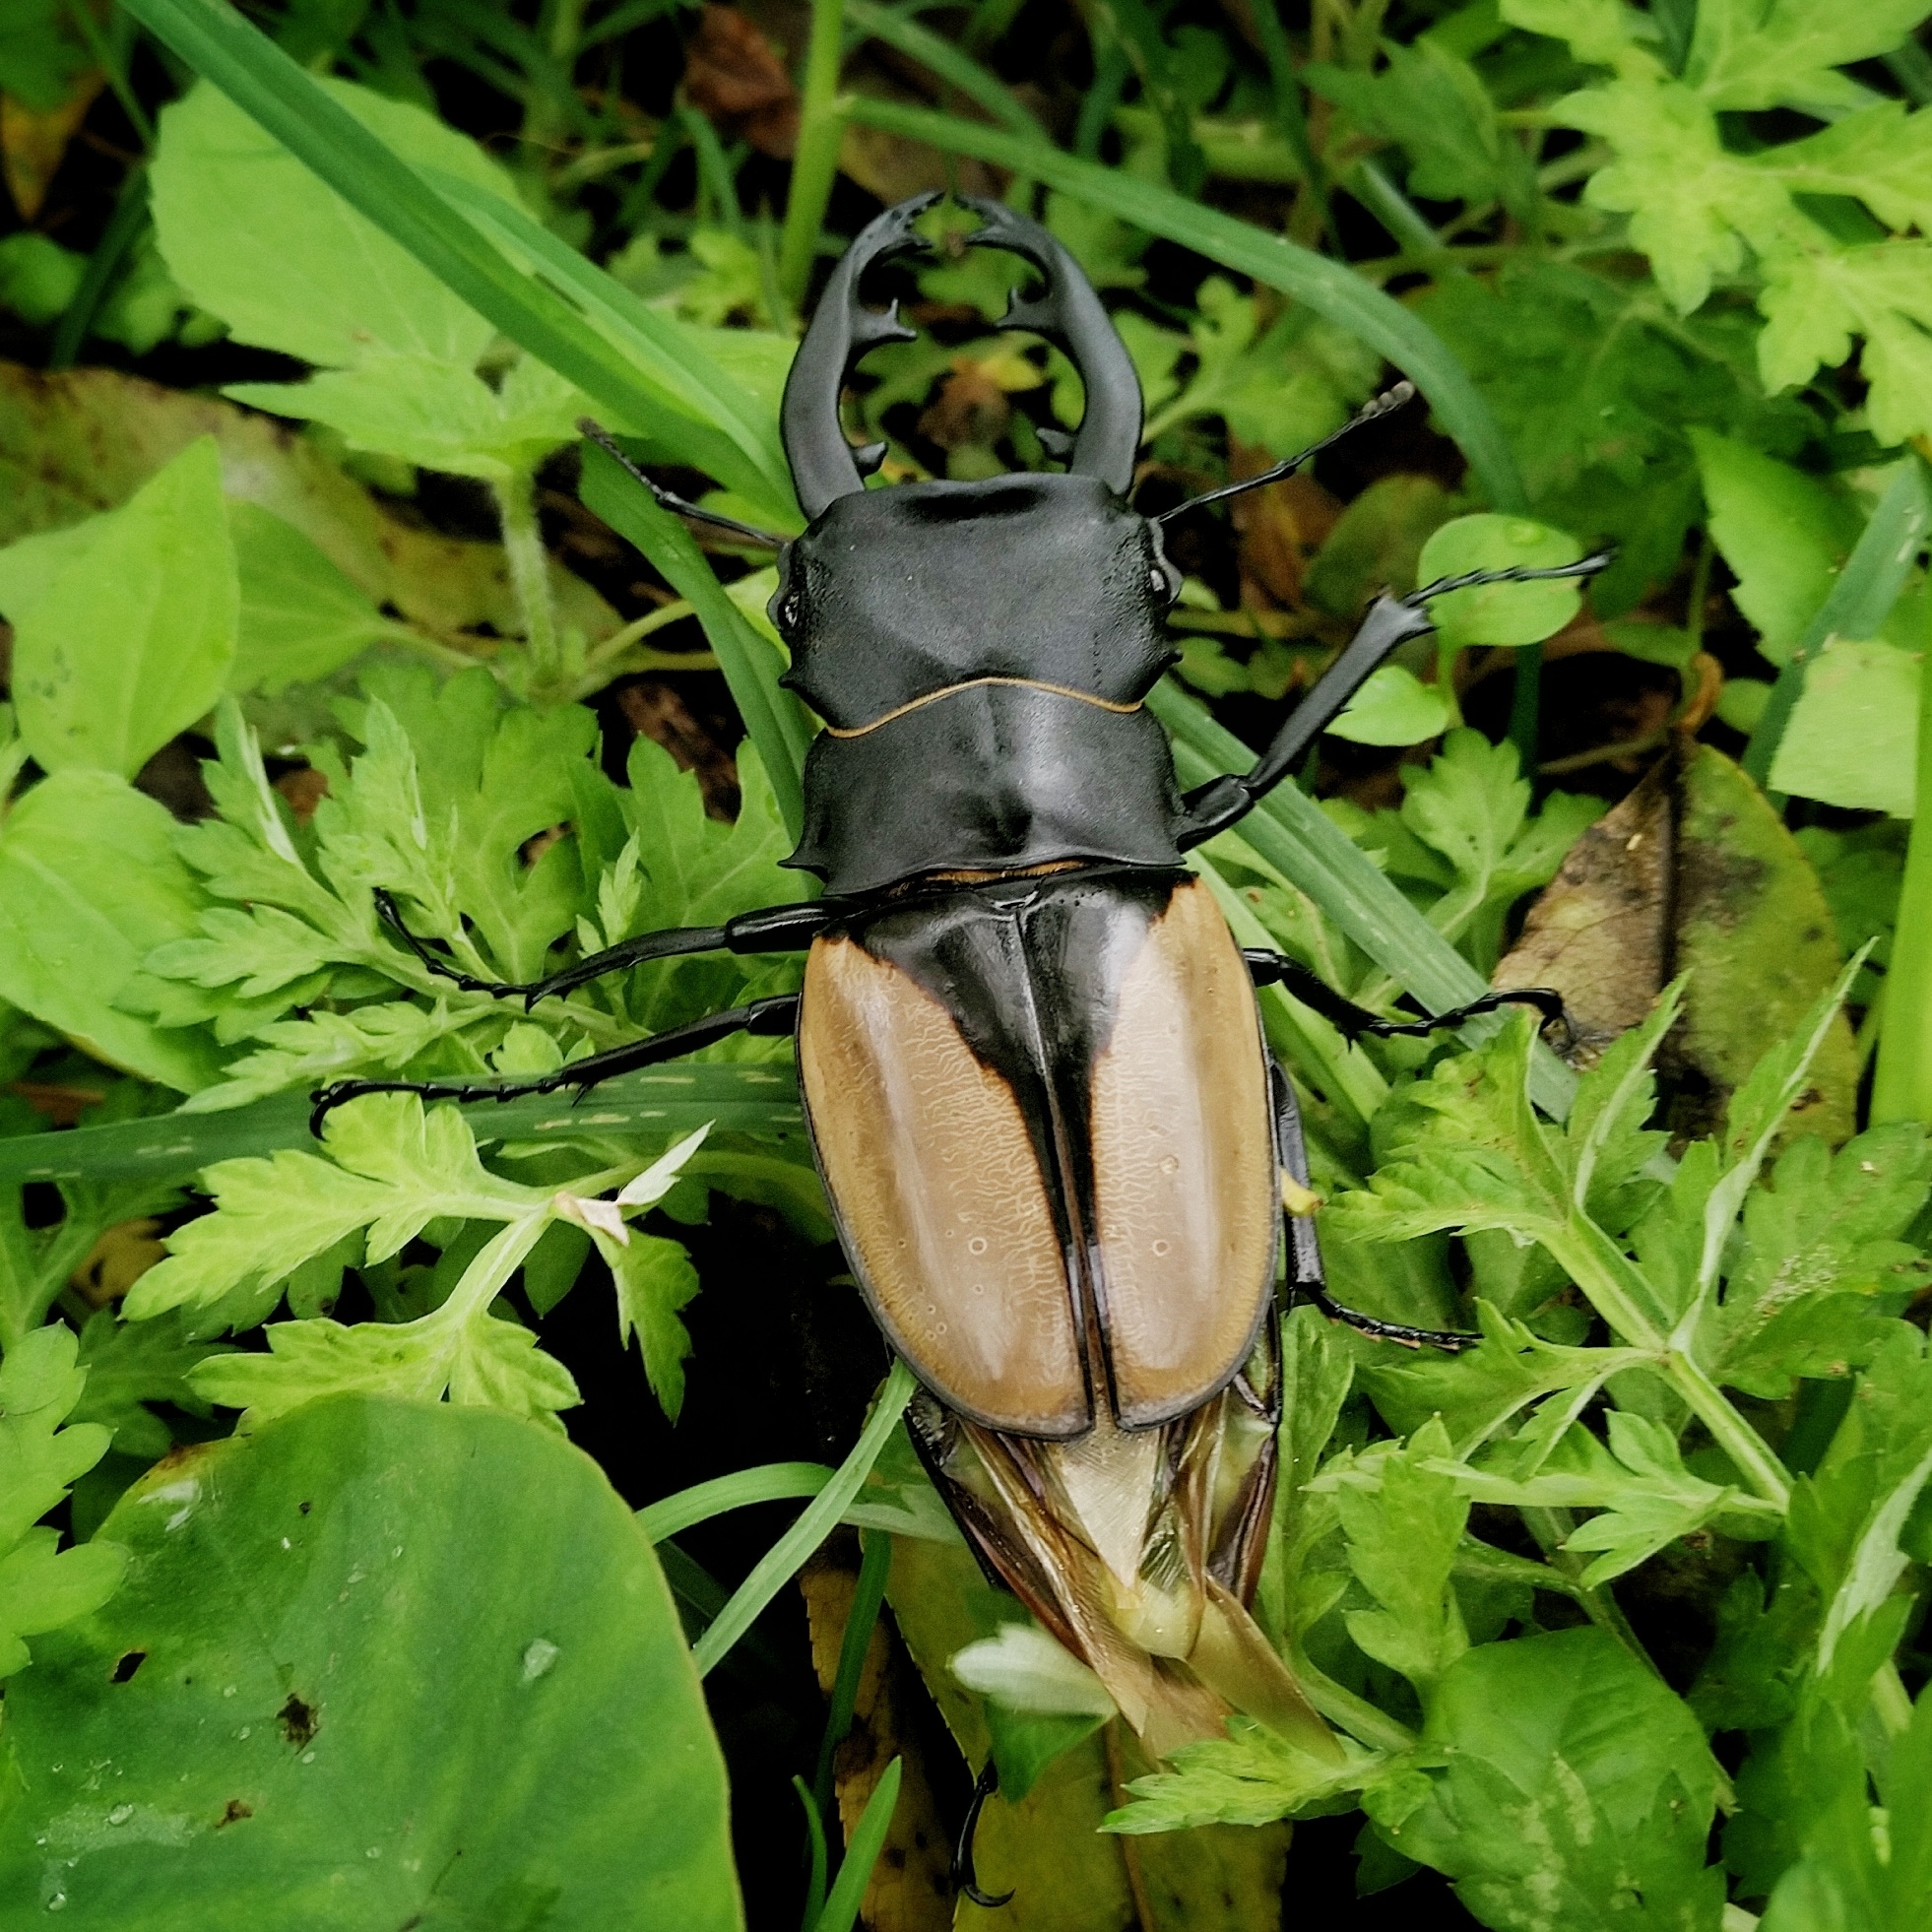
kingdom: Animalia
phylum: Arthropoda
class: Insecta
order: Coleoptera
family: Lucanidae
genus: Odontolabis
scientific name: Odontolabis delessertii
